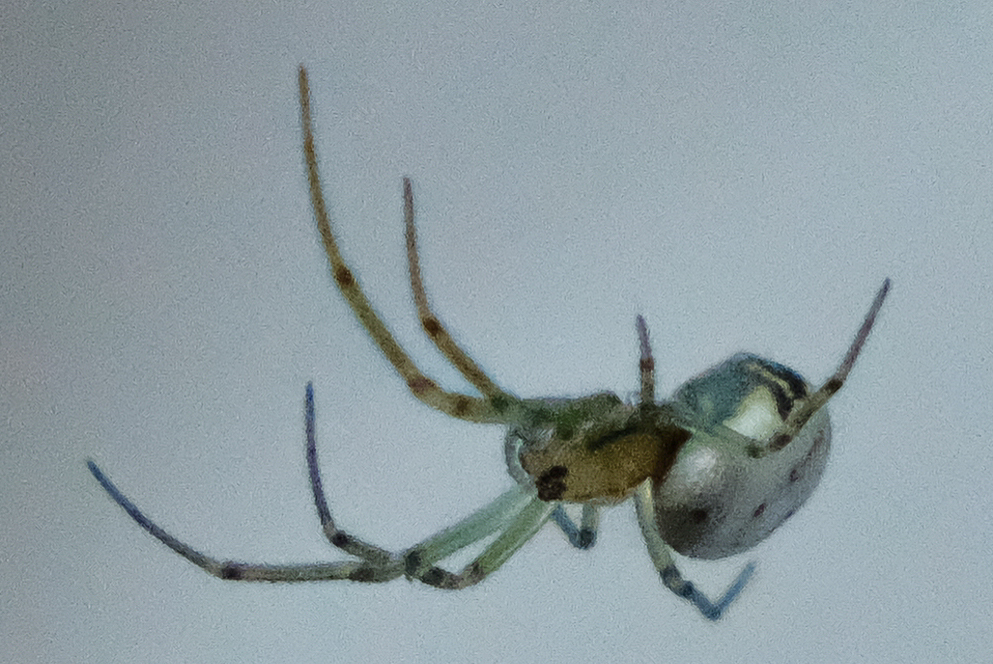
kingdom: Animalia
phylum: Arthropoda
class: Arachnida
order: Araneae
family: Tetragnathidae
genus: Leucauge
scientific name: Leucauge venusta
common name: Longjawed orb weavers
